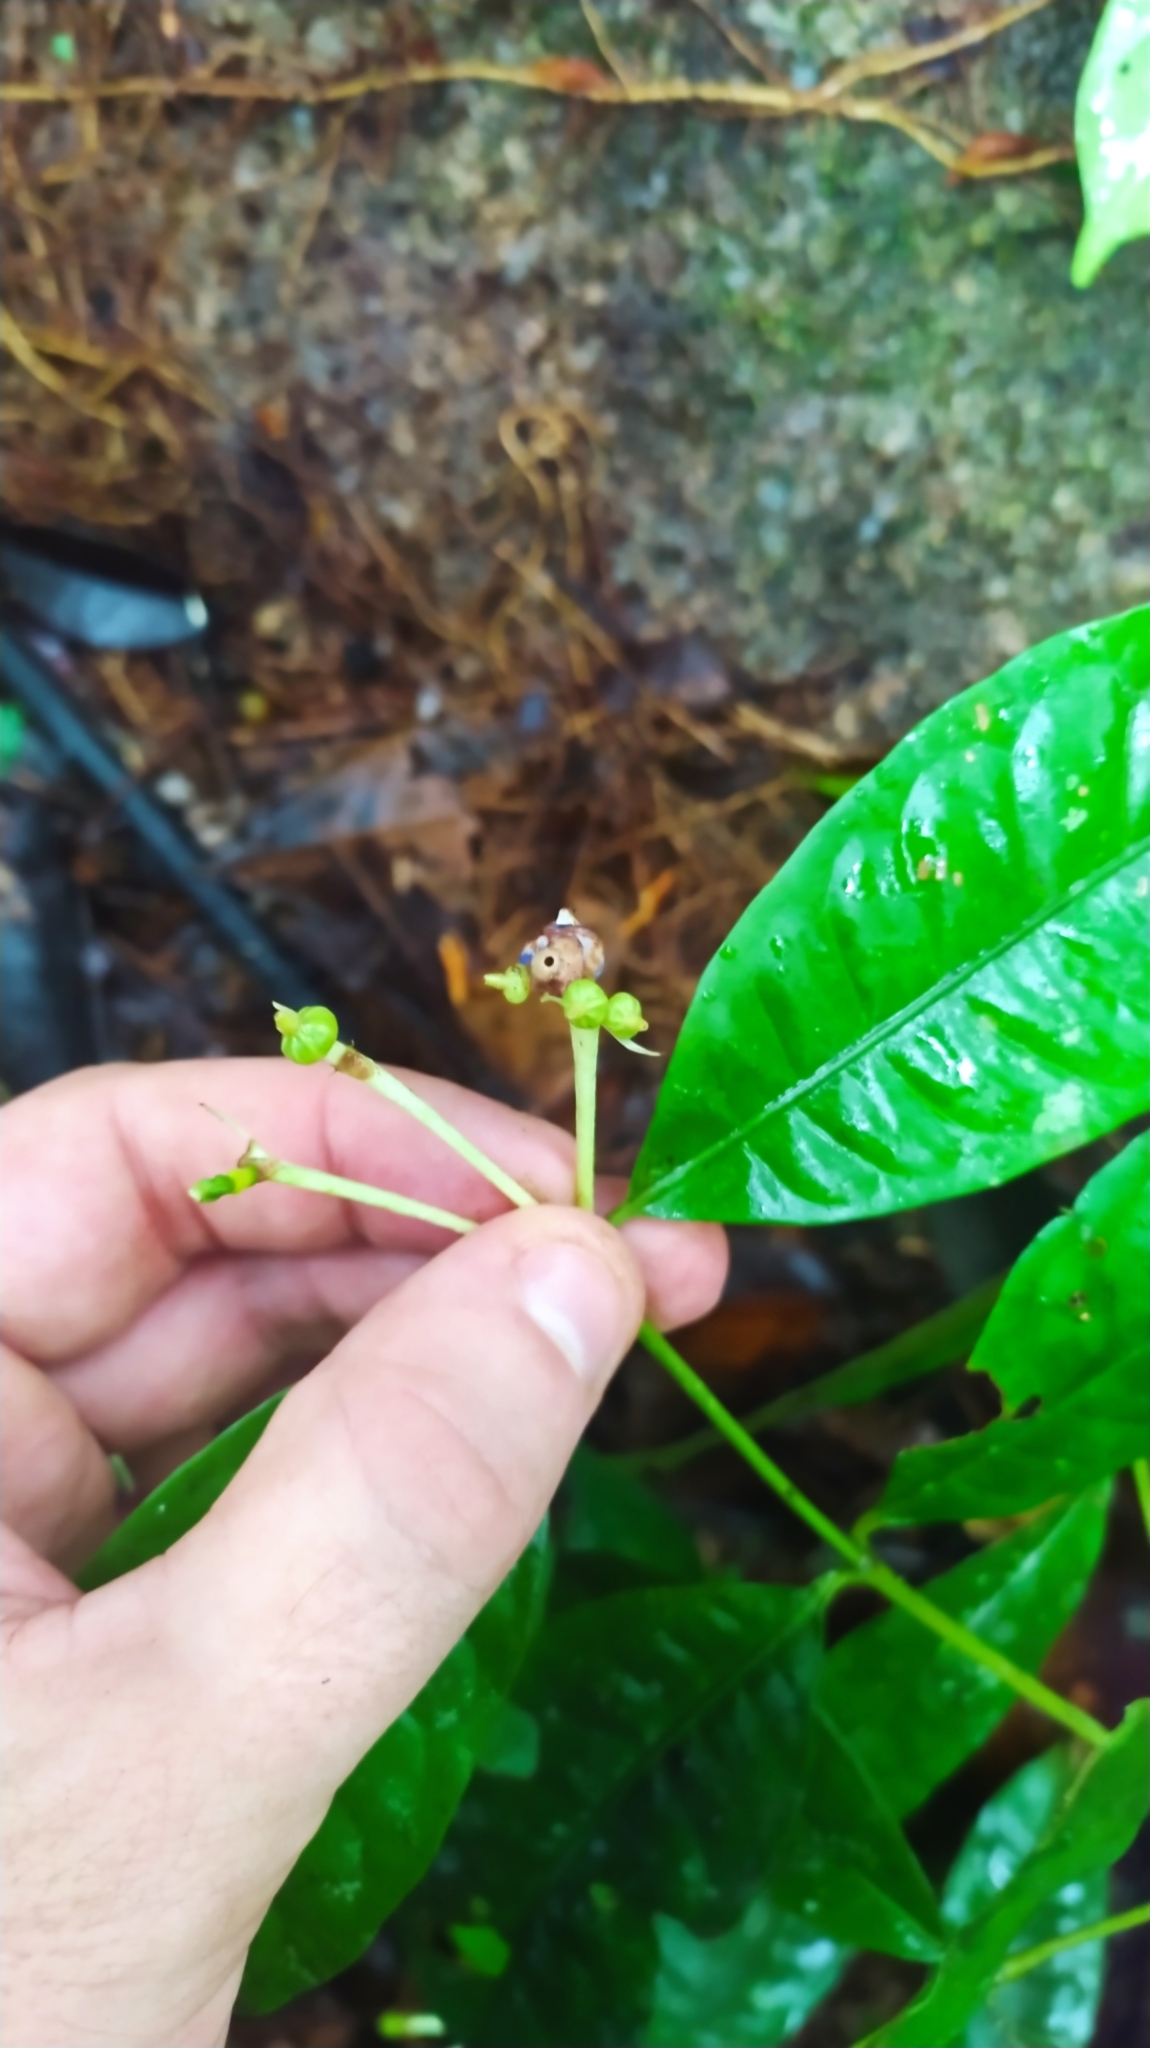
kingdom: Plantae
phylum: Tracheophyta
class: Magnoliopsida
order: Gentianales
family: Rubiaceae
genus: Faramea
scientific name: Faramea corymbosa
